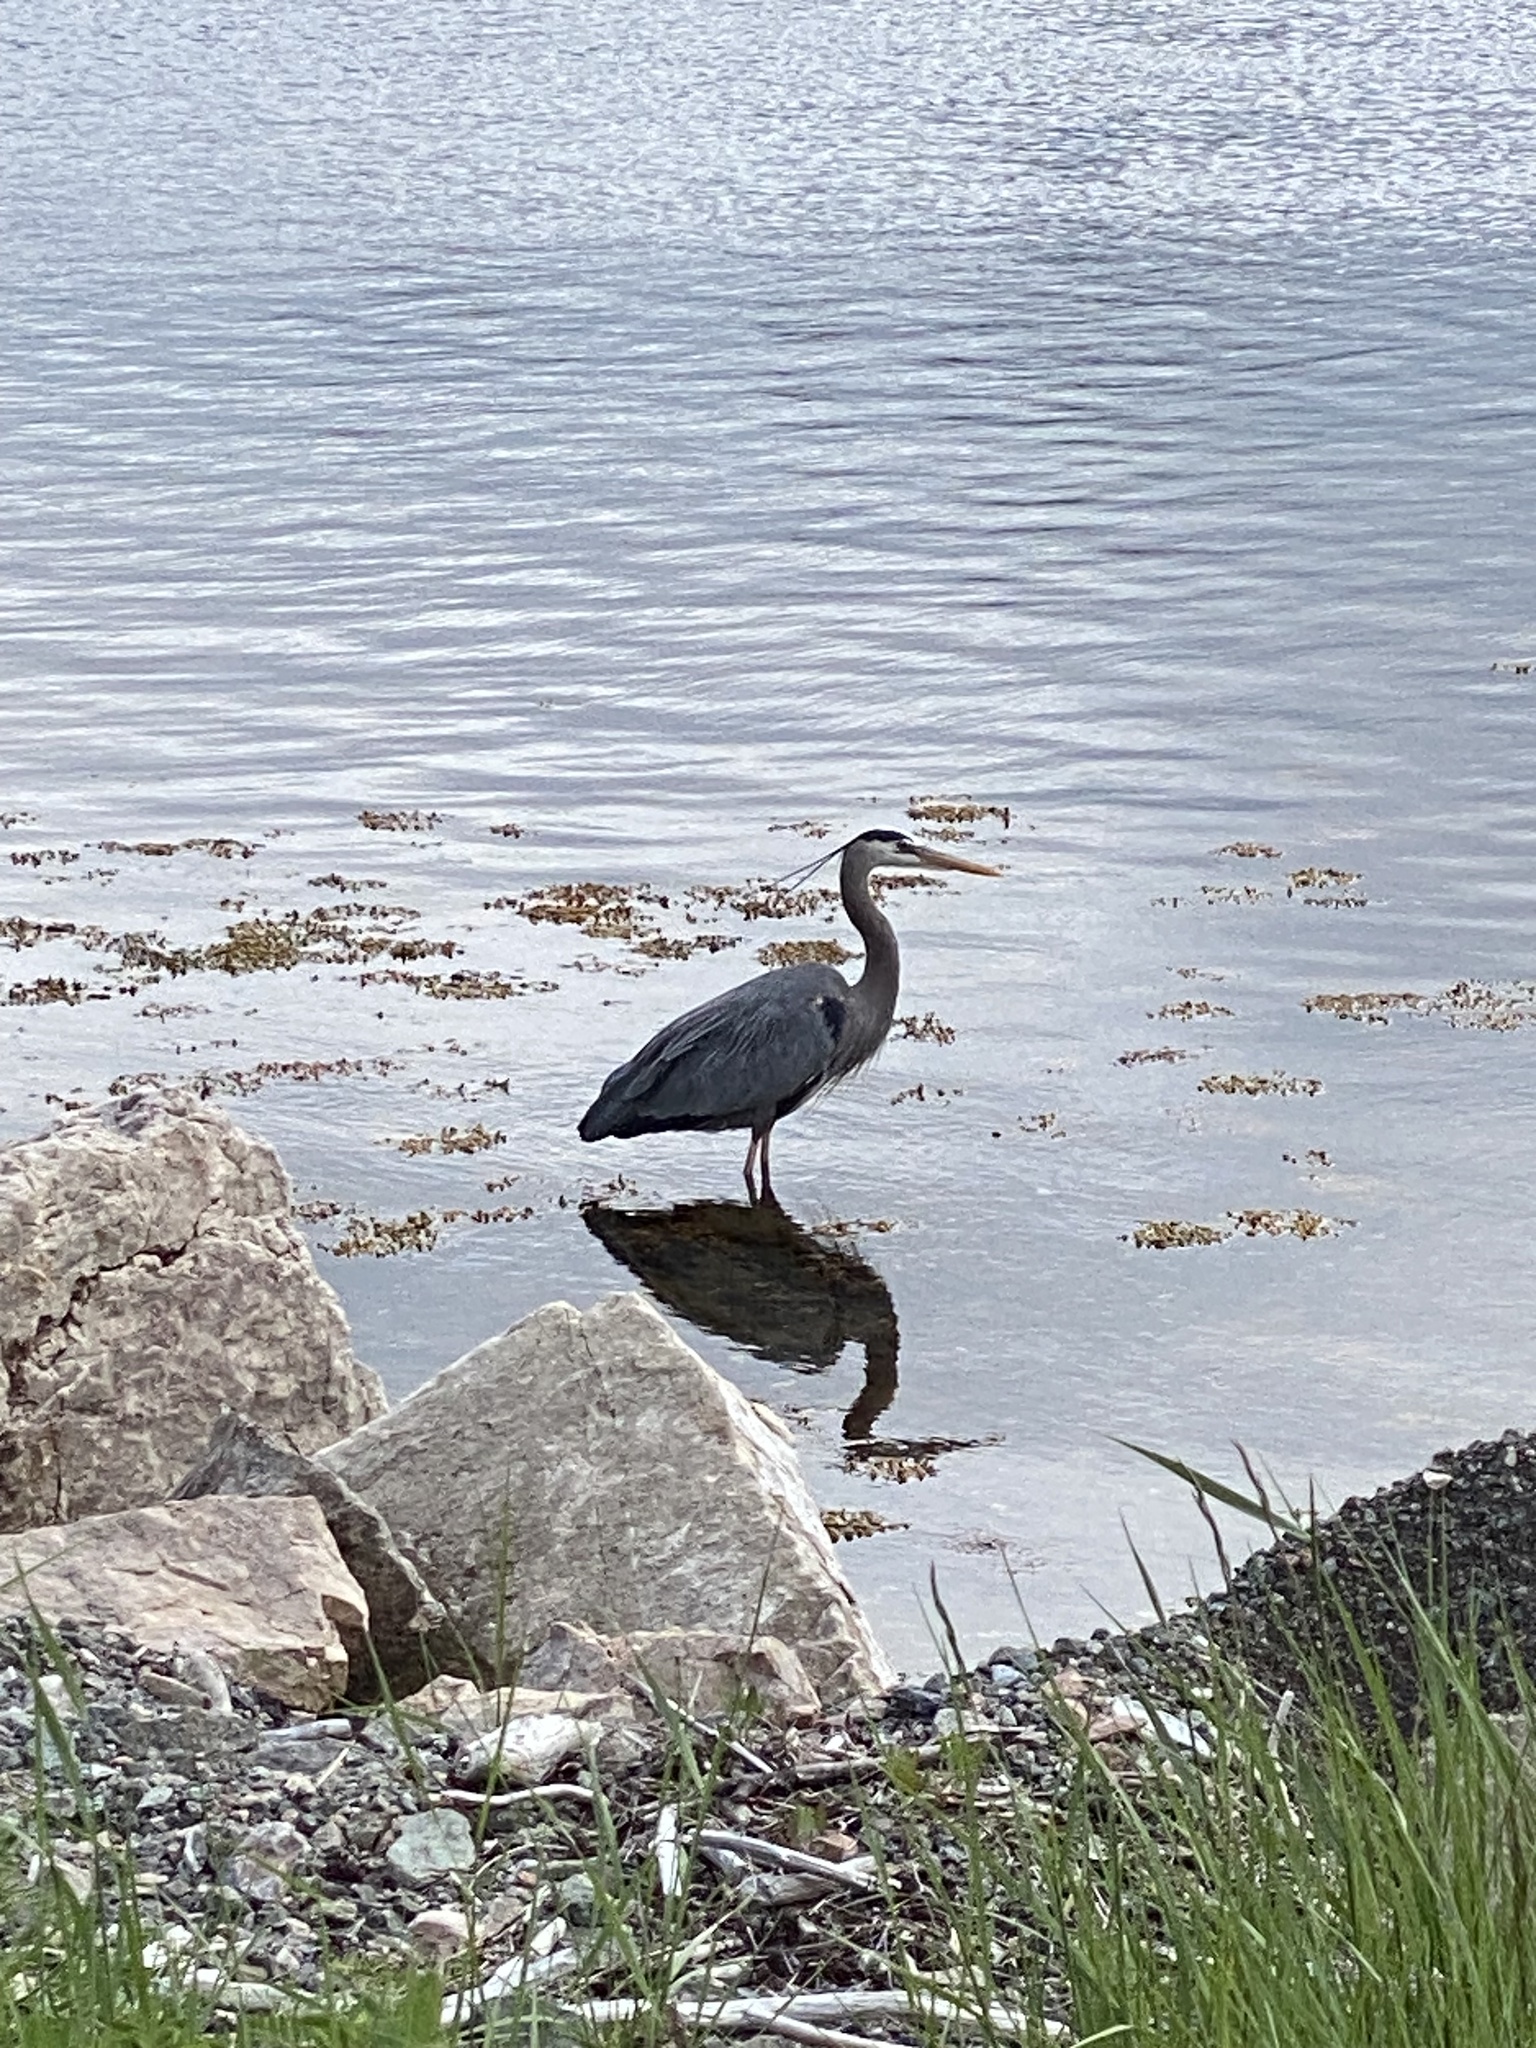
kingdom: Animalia
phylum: Chordata
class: Aves
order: Pelecaniformes
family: Ardeidae
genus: Ardea
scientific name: Ardea herodias
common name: Great blue heron
